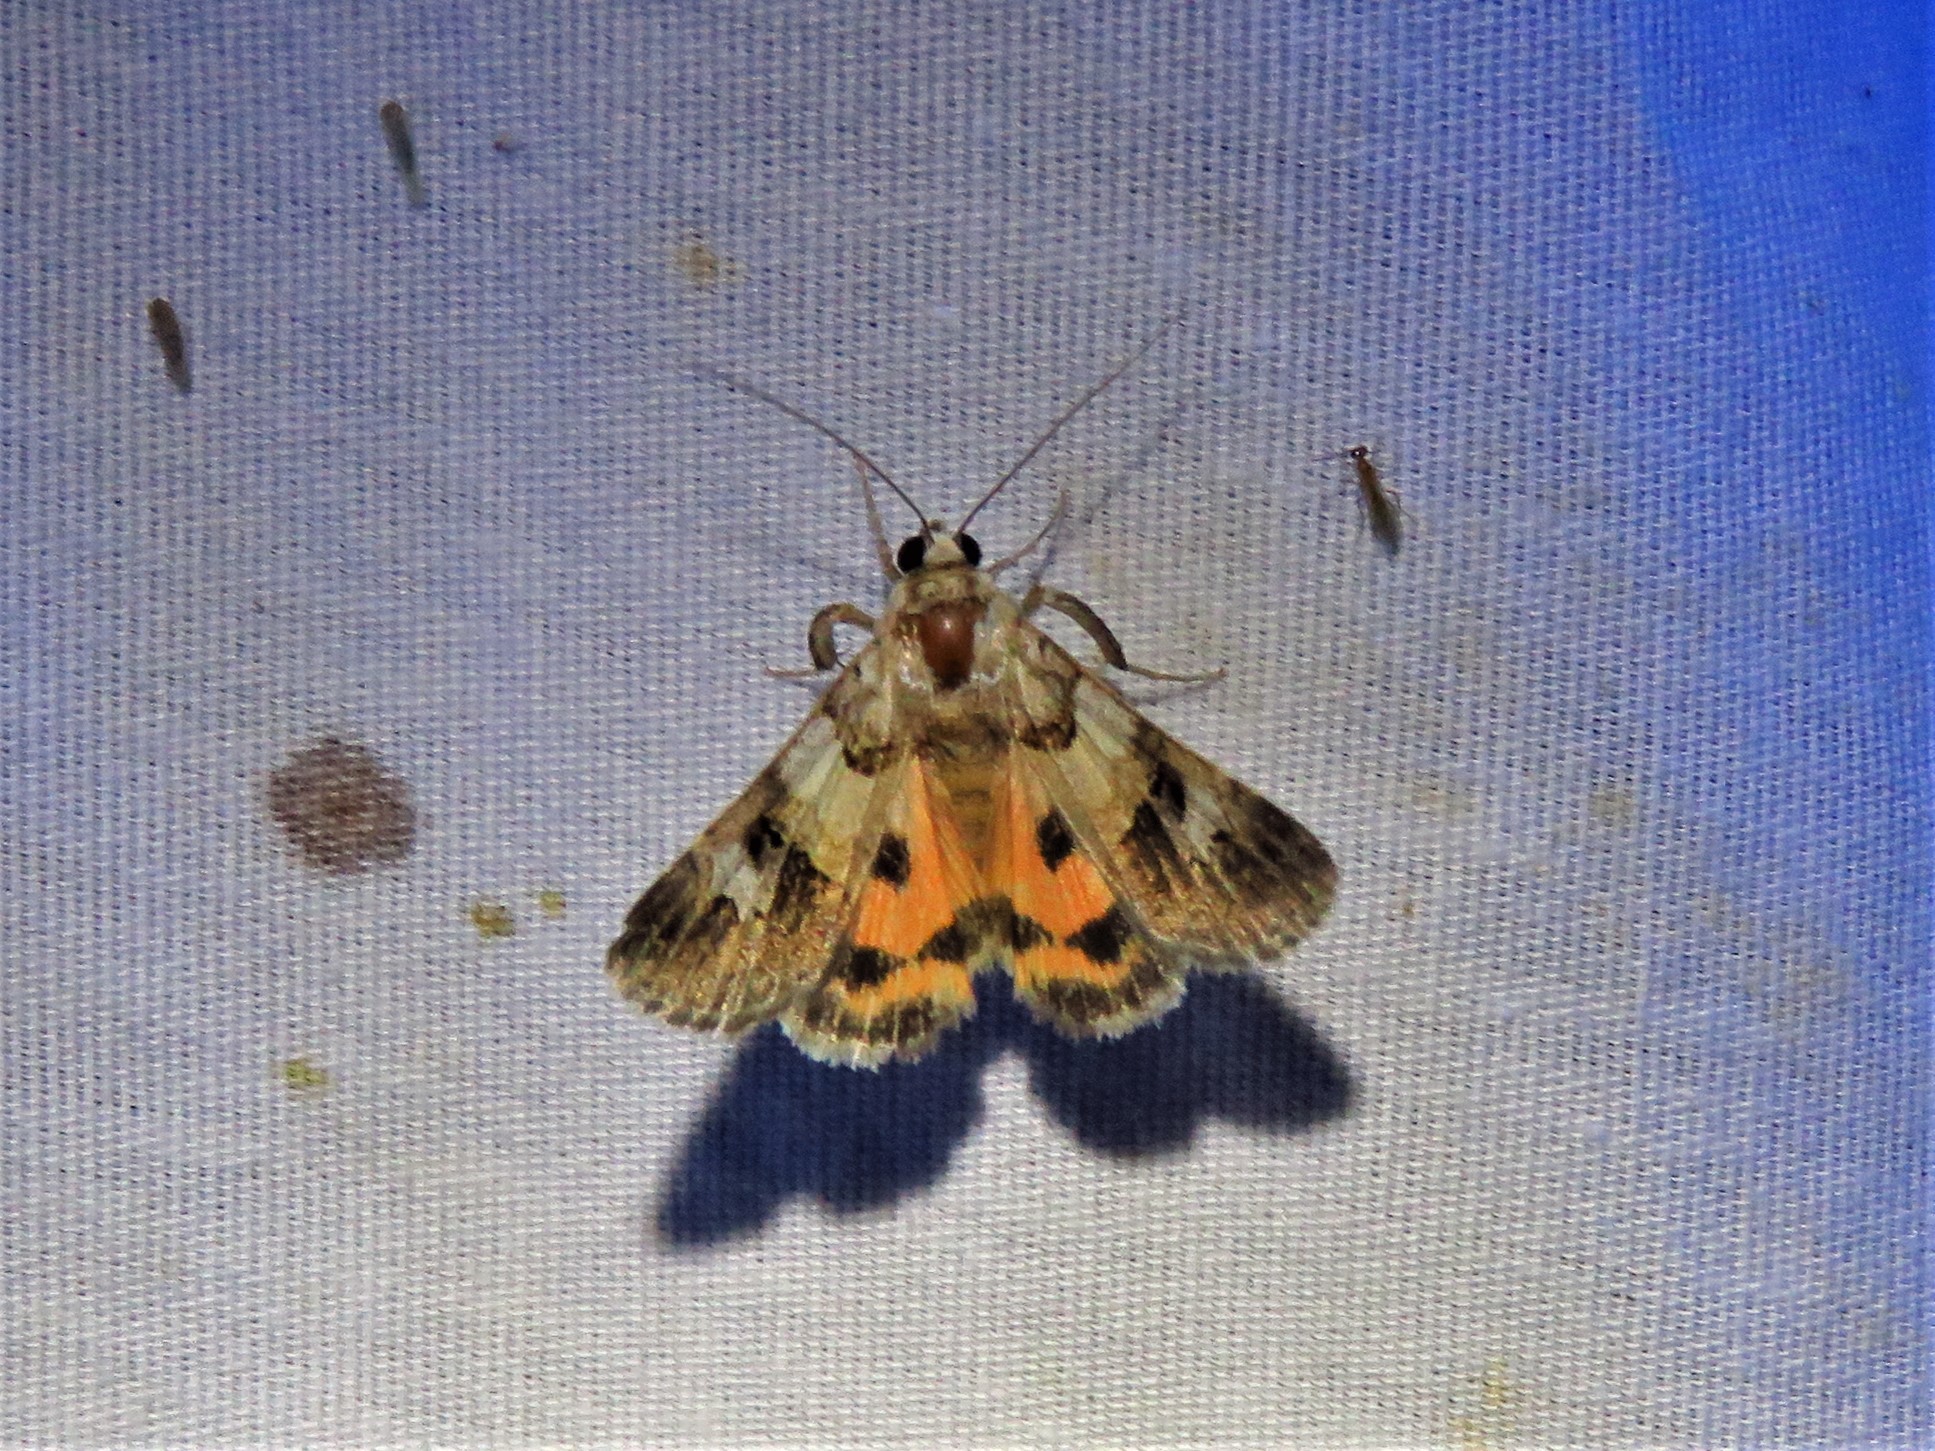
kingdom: Animalia
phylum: Arthropoda
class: Insecta
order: Lepidoptera
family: Erebidae
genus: Drasteria
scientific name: Drasteria ingeniculata
